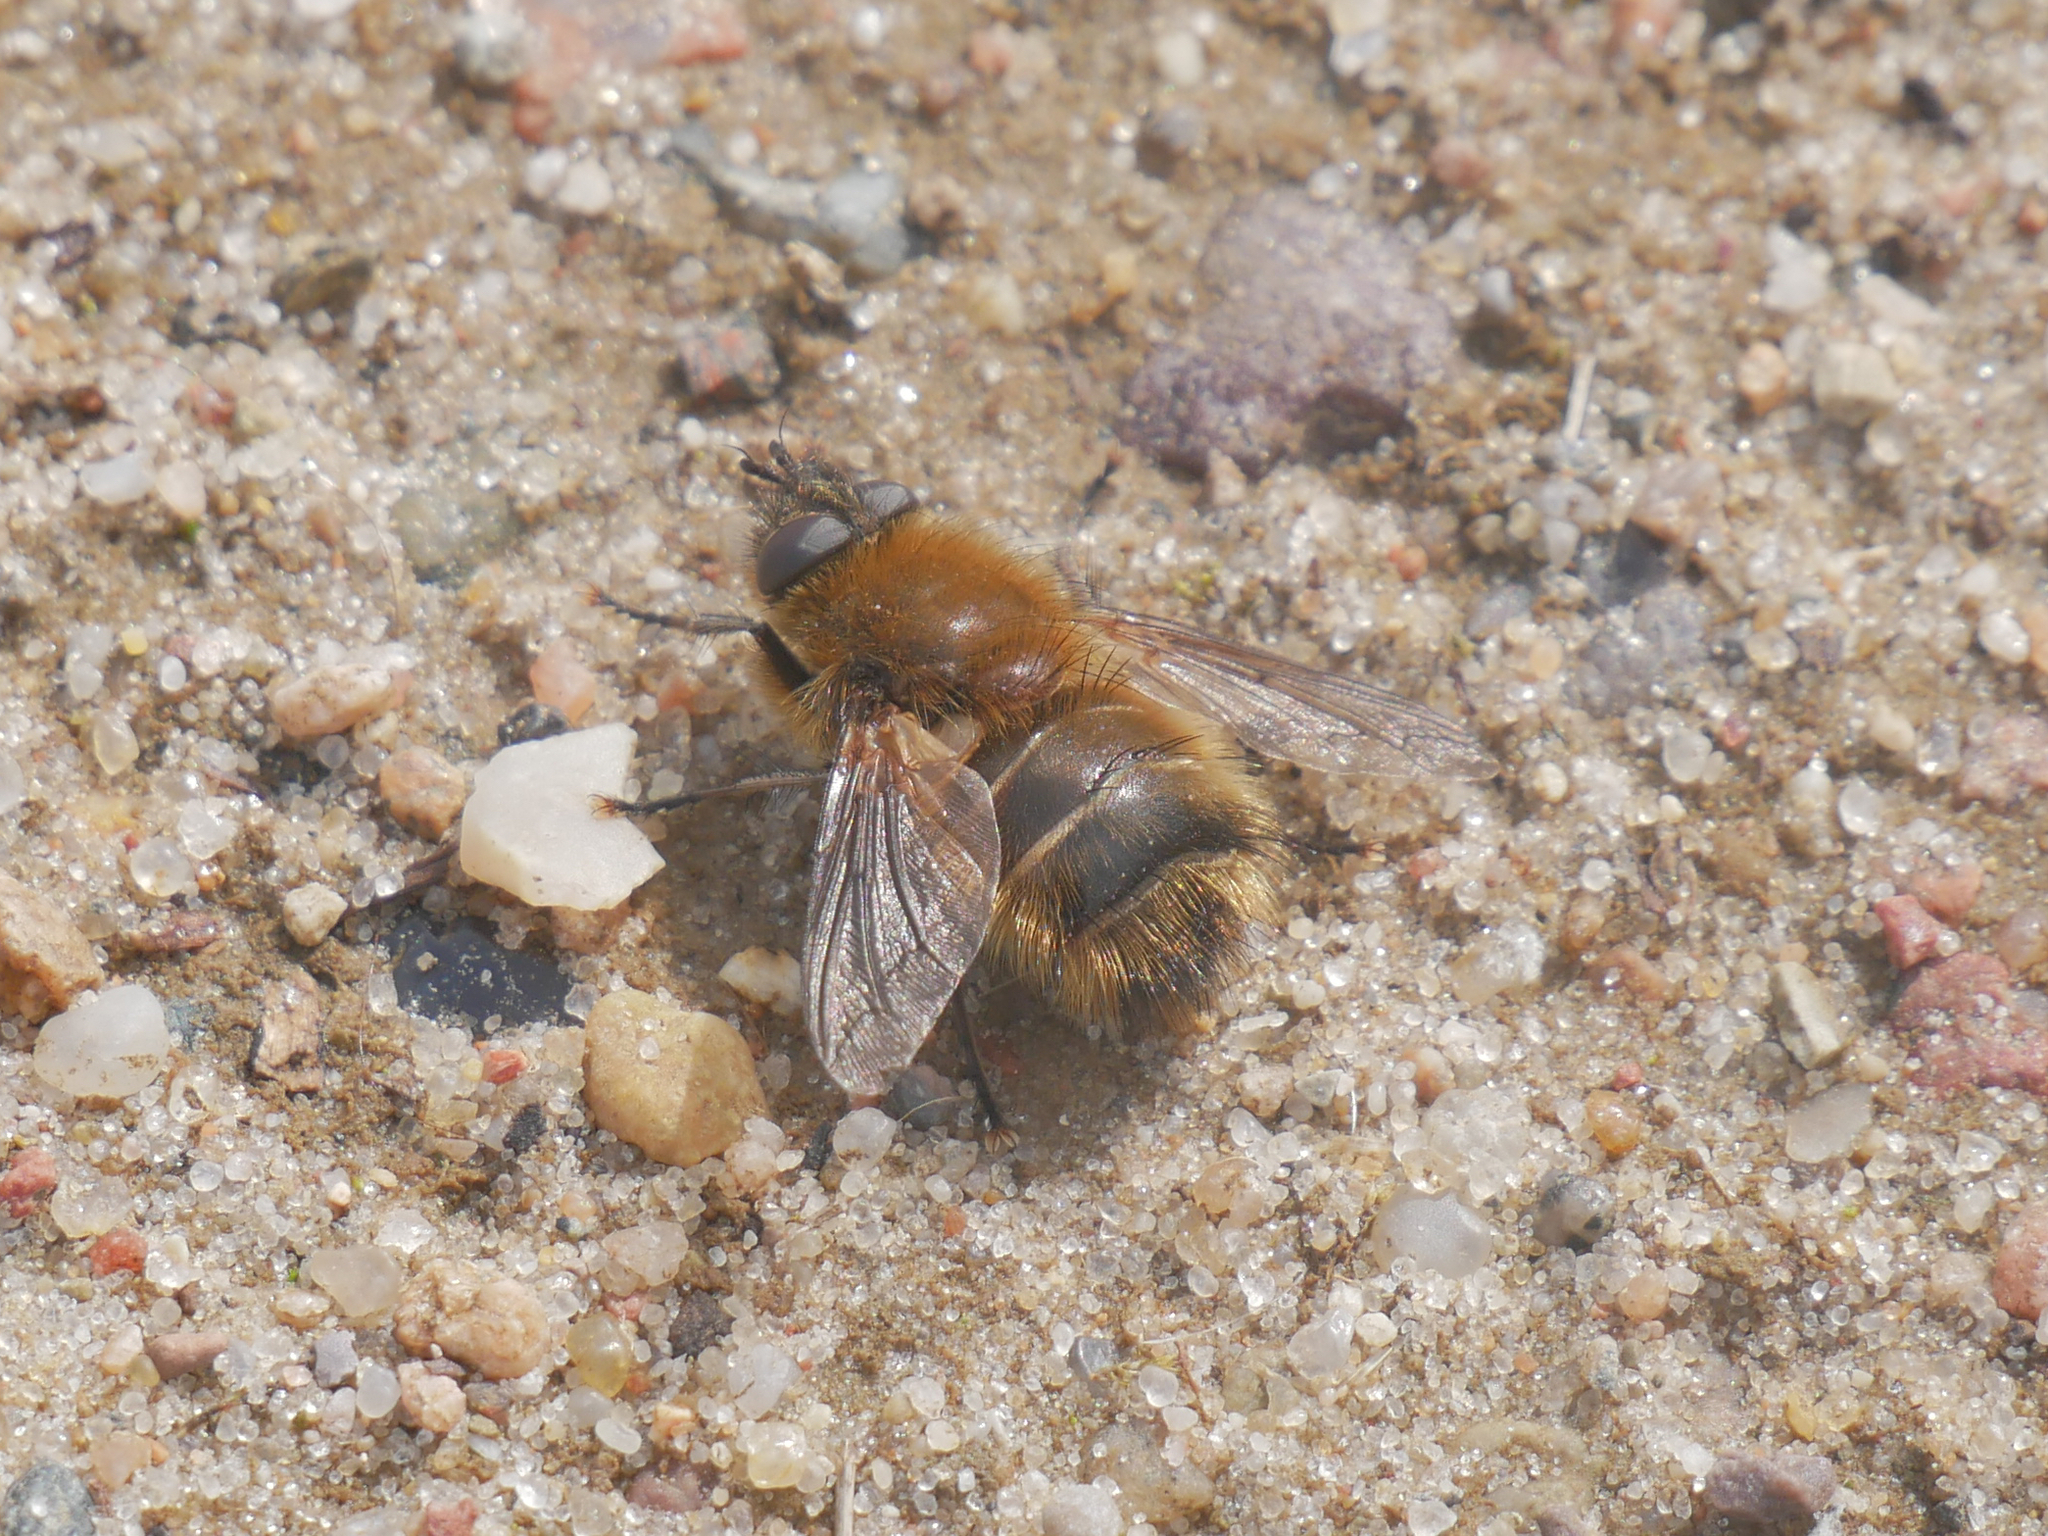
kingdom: Animalia
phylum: Arthropoda
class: Insecta
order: Diptera
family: Tachinidae
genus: Tachina
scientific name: Tachina ursina
